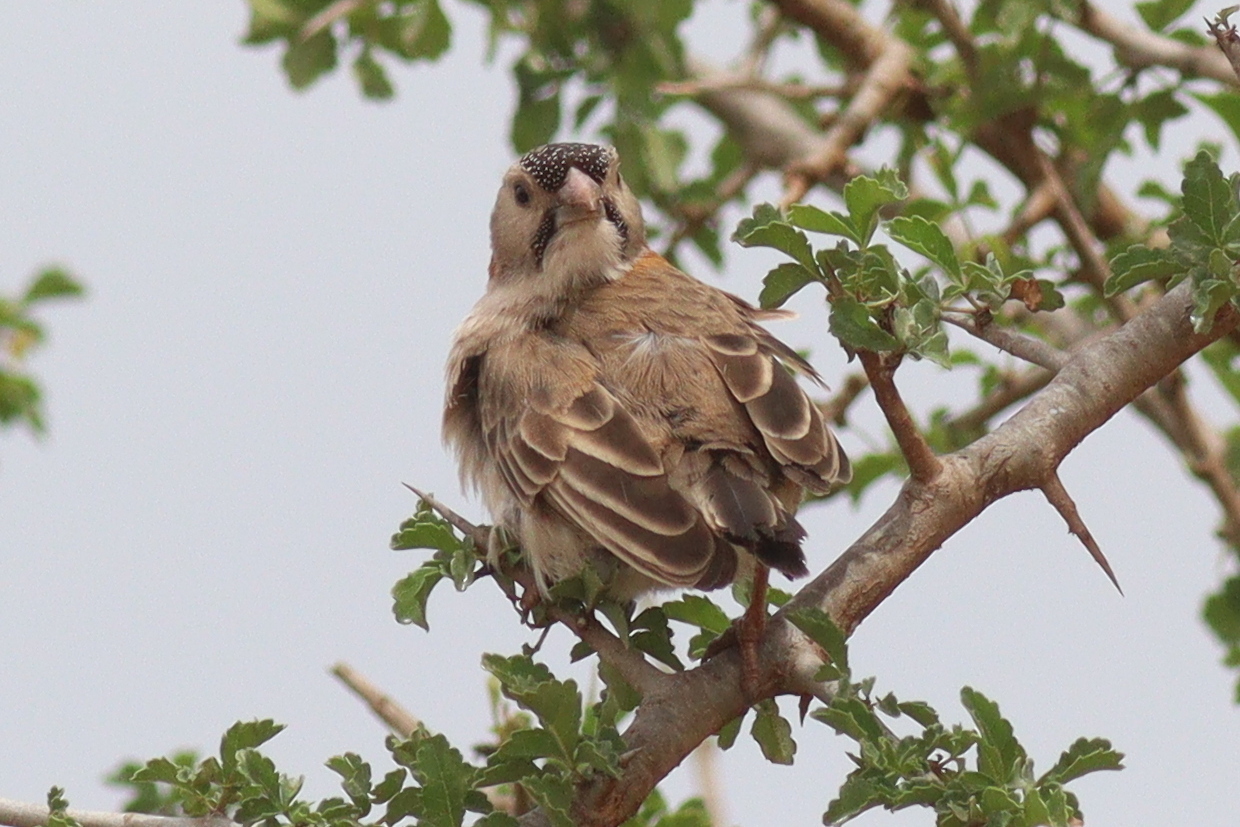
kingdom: Animalia
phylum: Chordata
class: Aves
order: Passeriformes
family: Ploceidae
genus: Sporopipes
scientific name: Sporopipes frontalis
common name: Speckle-fronted weaver
